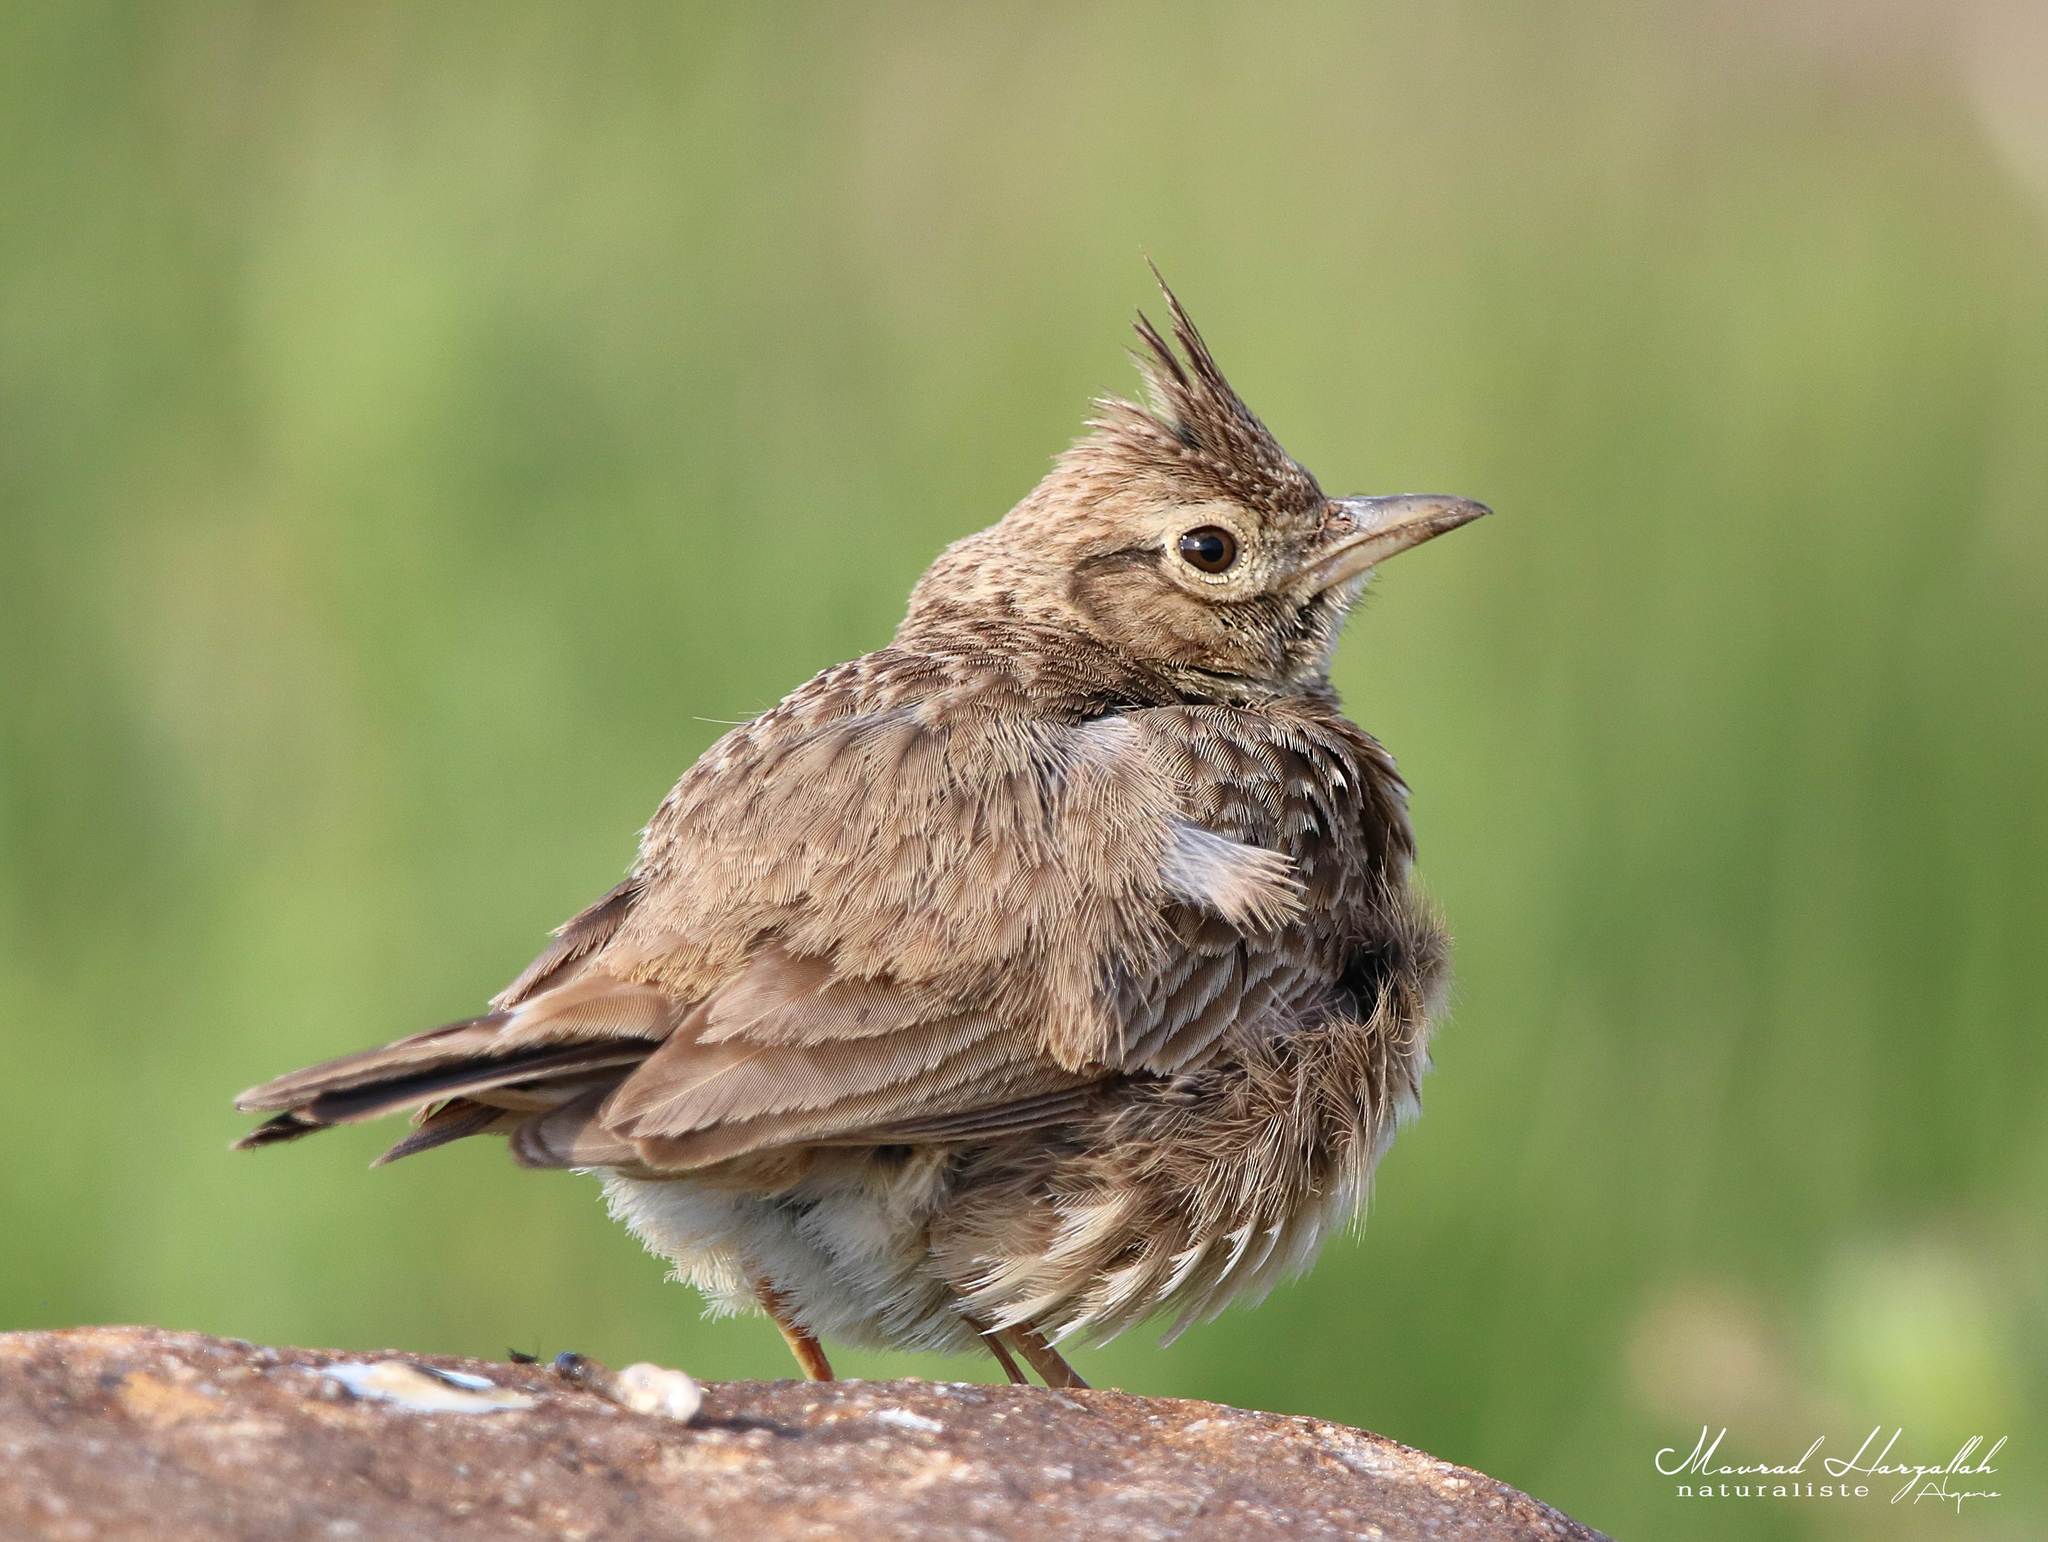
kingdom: Animalia
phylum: Chordata
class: Aves
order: Passeriformes
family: Alaudidae
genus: Galerida
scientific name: Galerida cristata
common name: Crested lark
